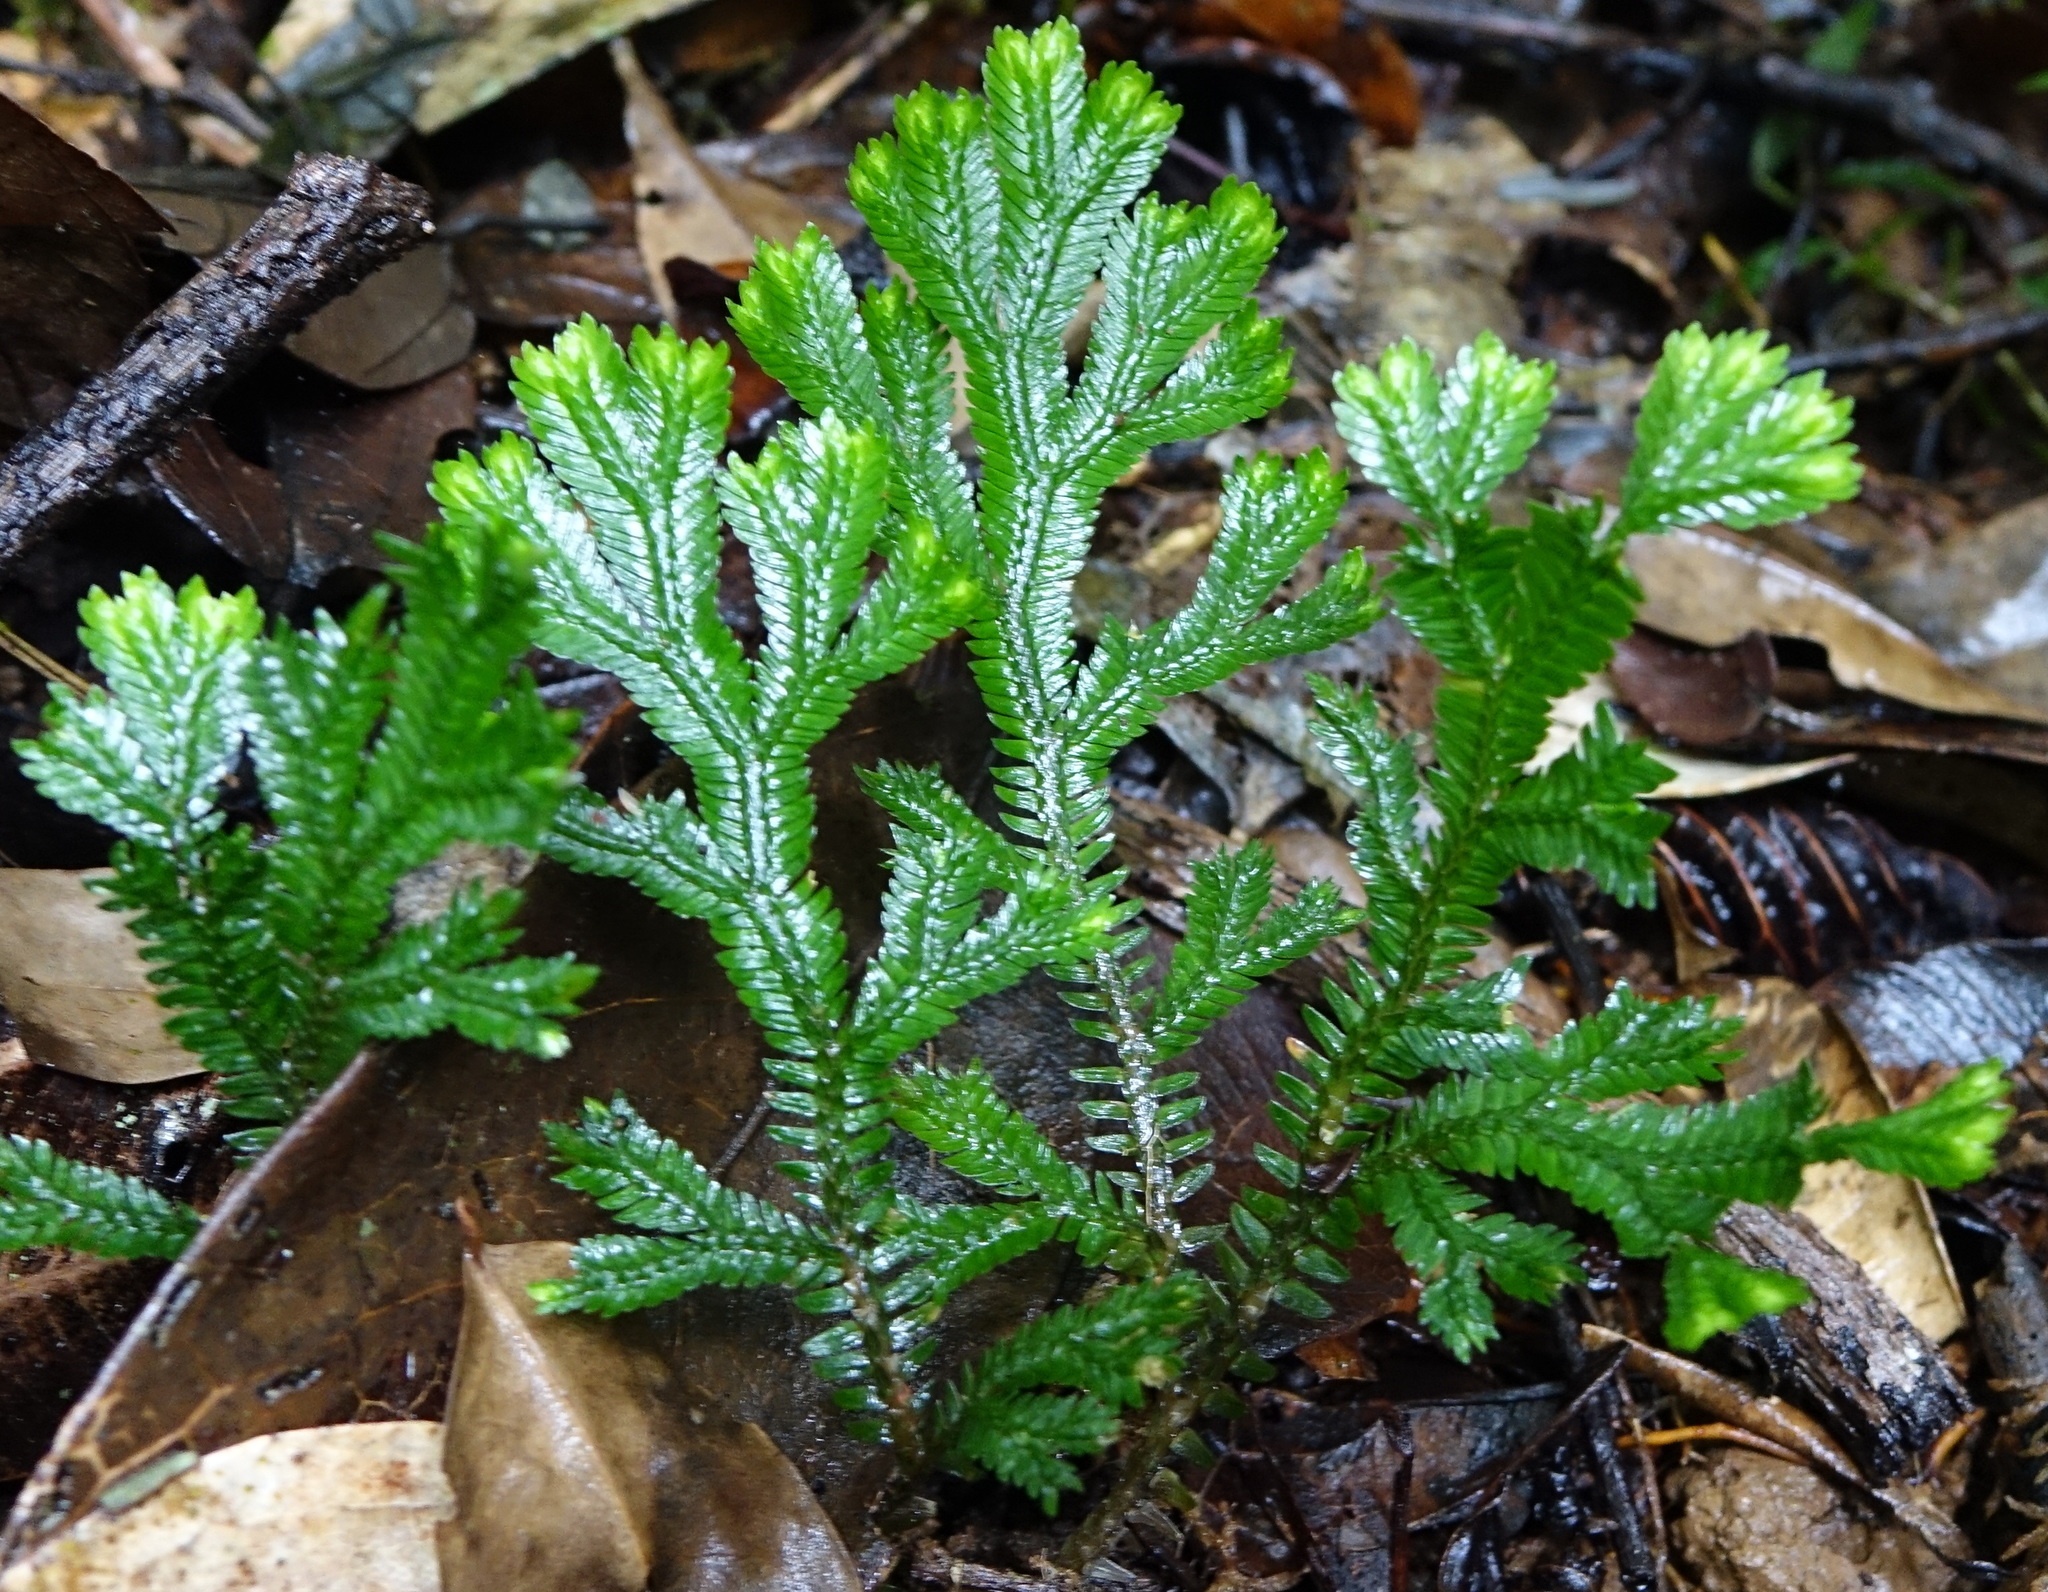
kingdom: Plantae
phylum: Tracheophyta
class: Lycopodiopsida
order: Selaginellales
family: Selaginellaceae
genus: Selaginella
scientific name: Selaginella goudotiana
